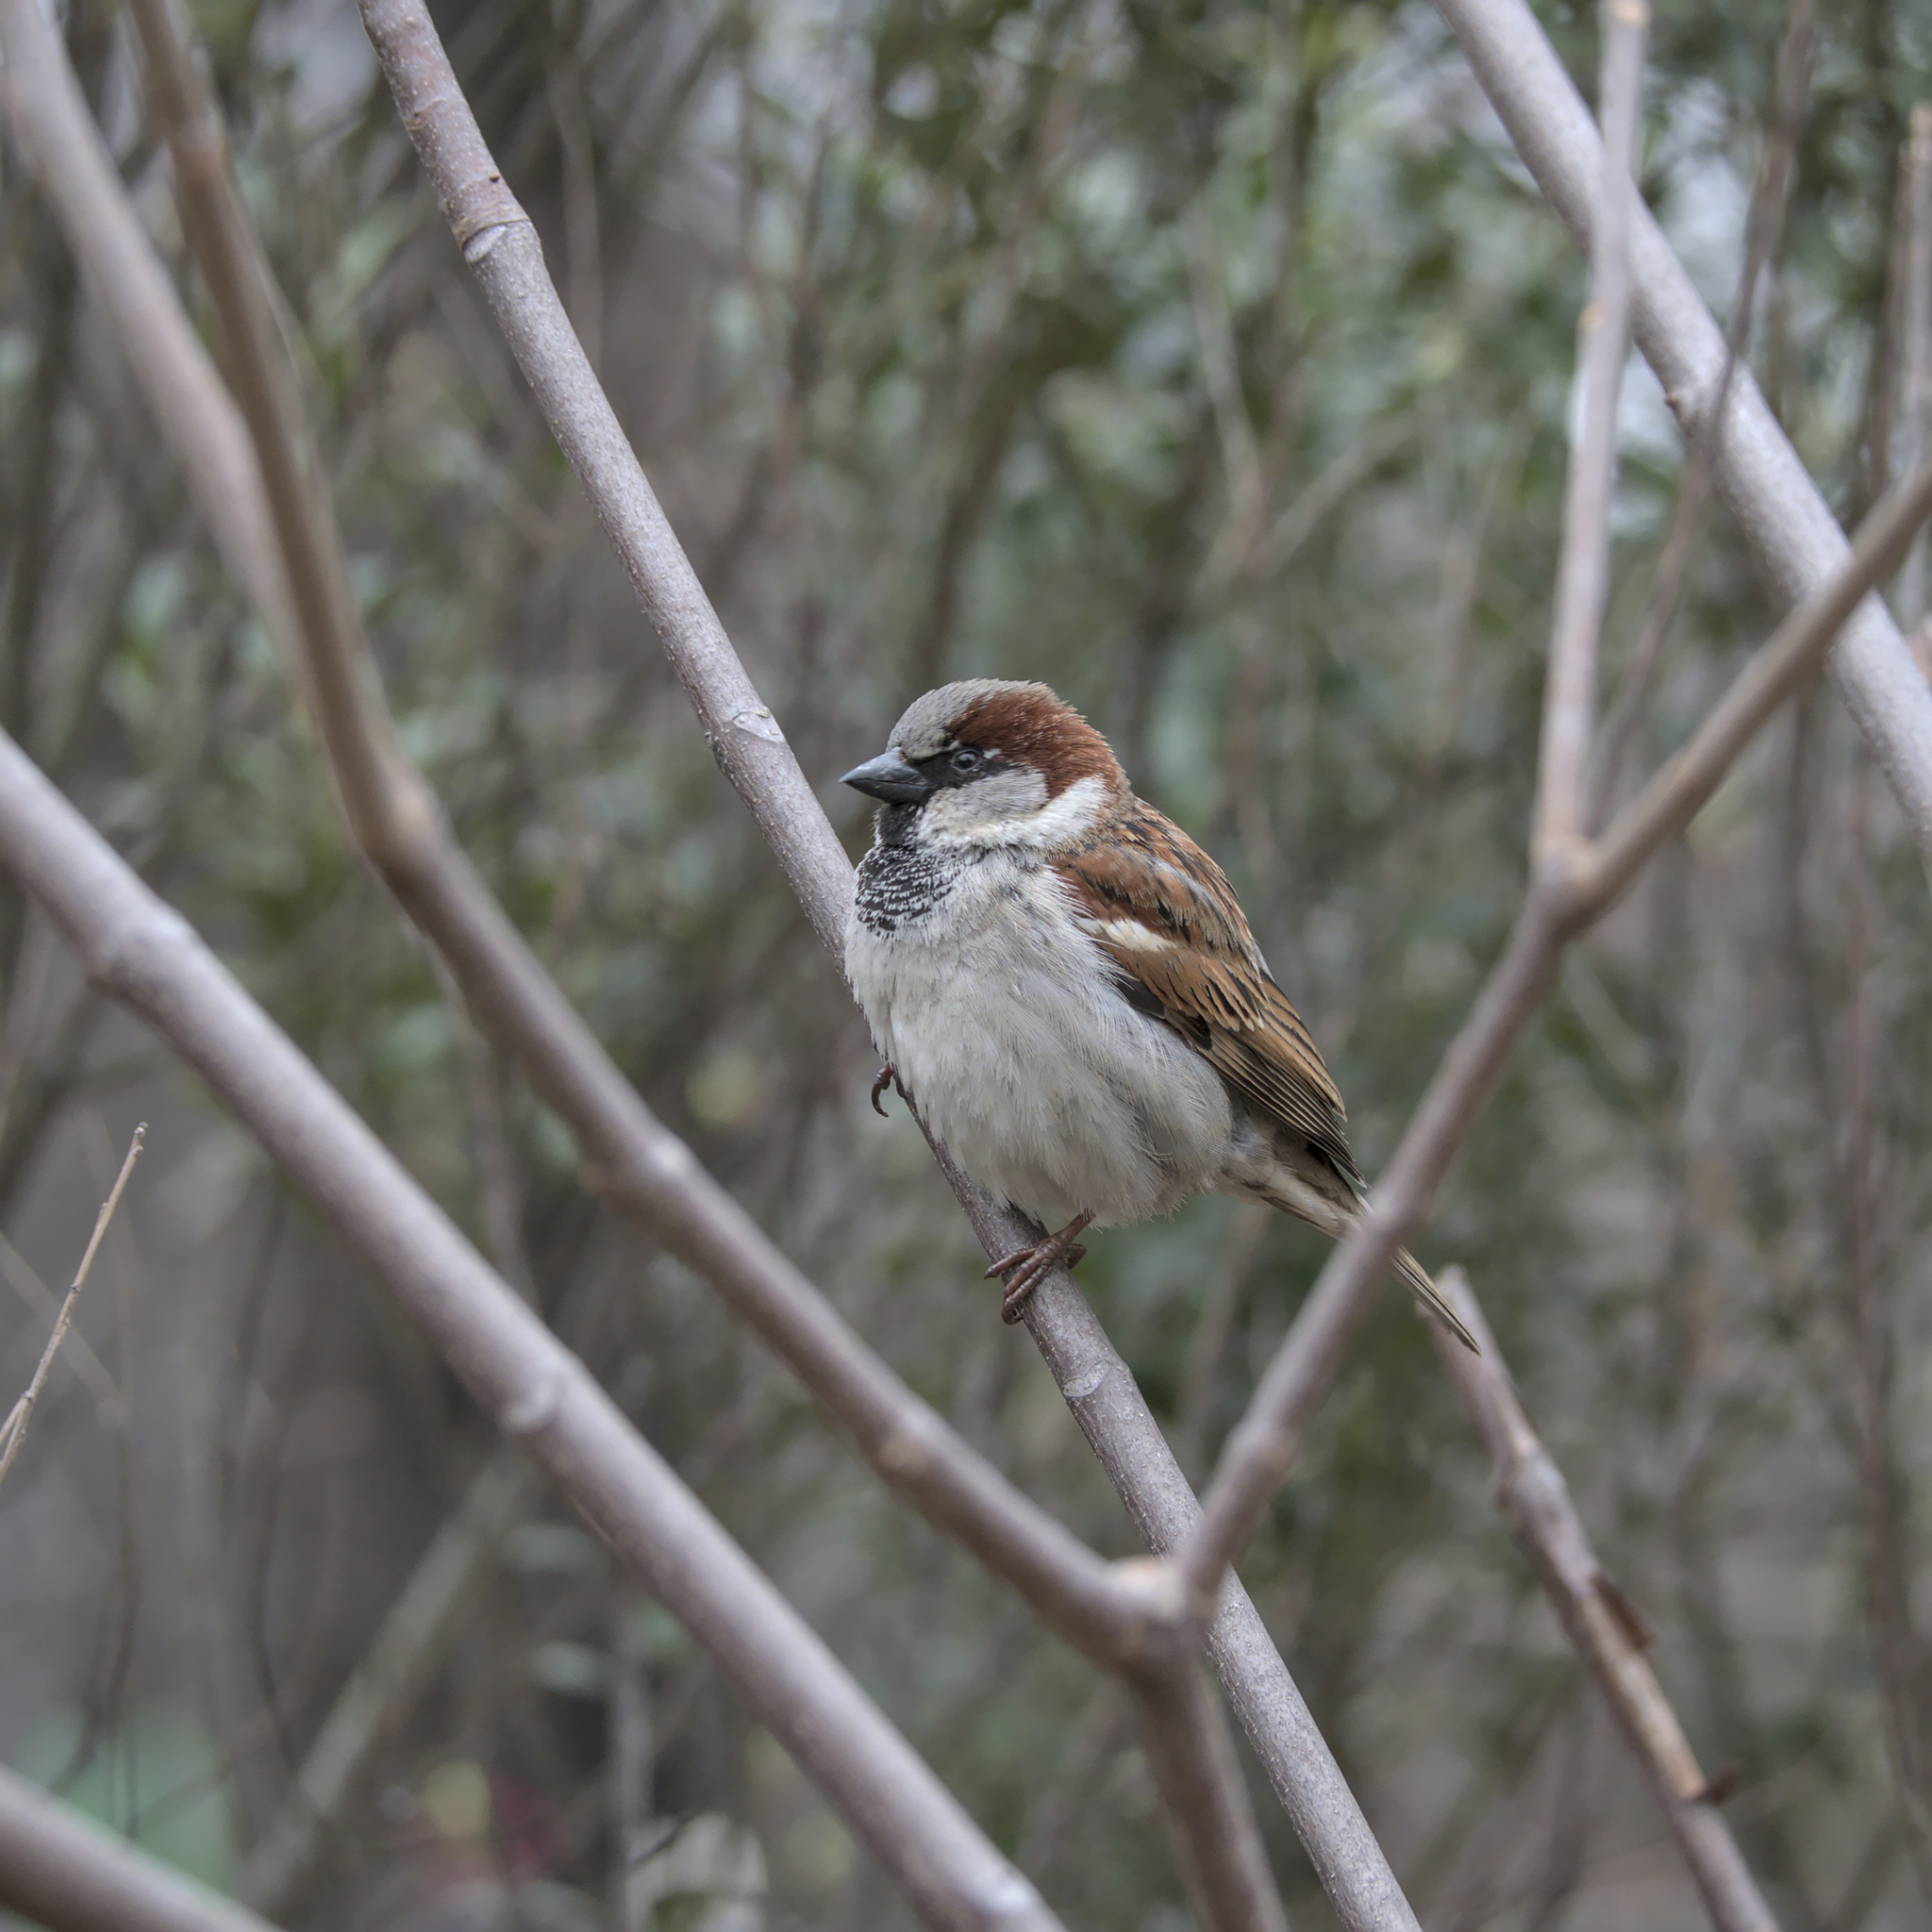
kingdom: Animalia
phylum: Chordata
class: Aves
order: Passeriformes
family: Passeridae
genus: Passer
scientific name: Passer domesticus
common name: House sparrow
